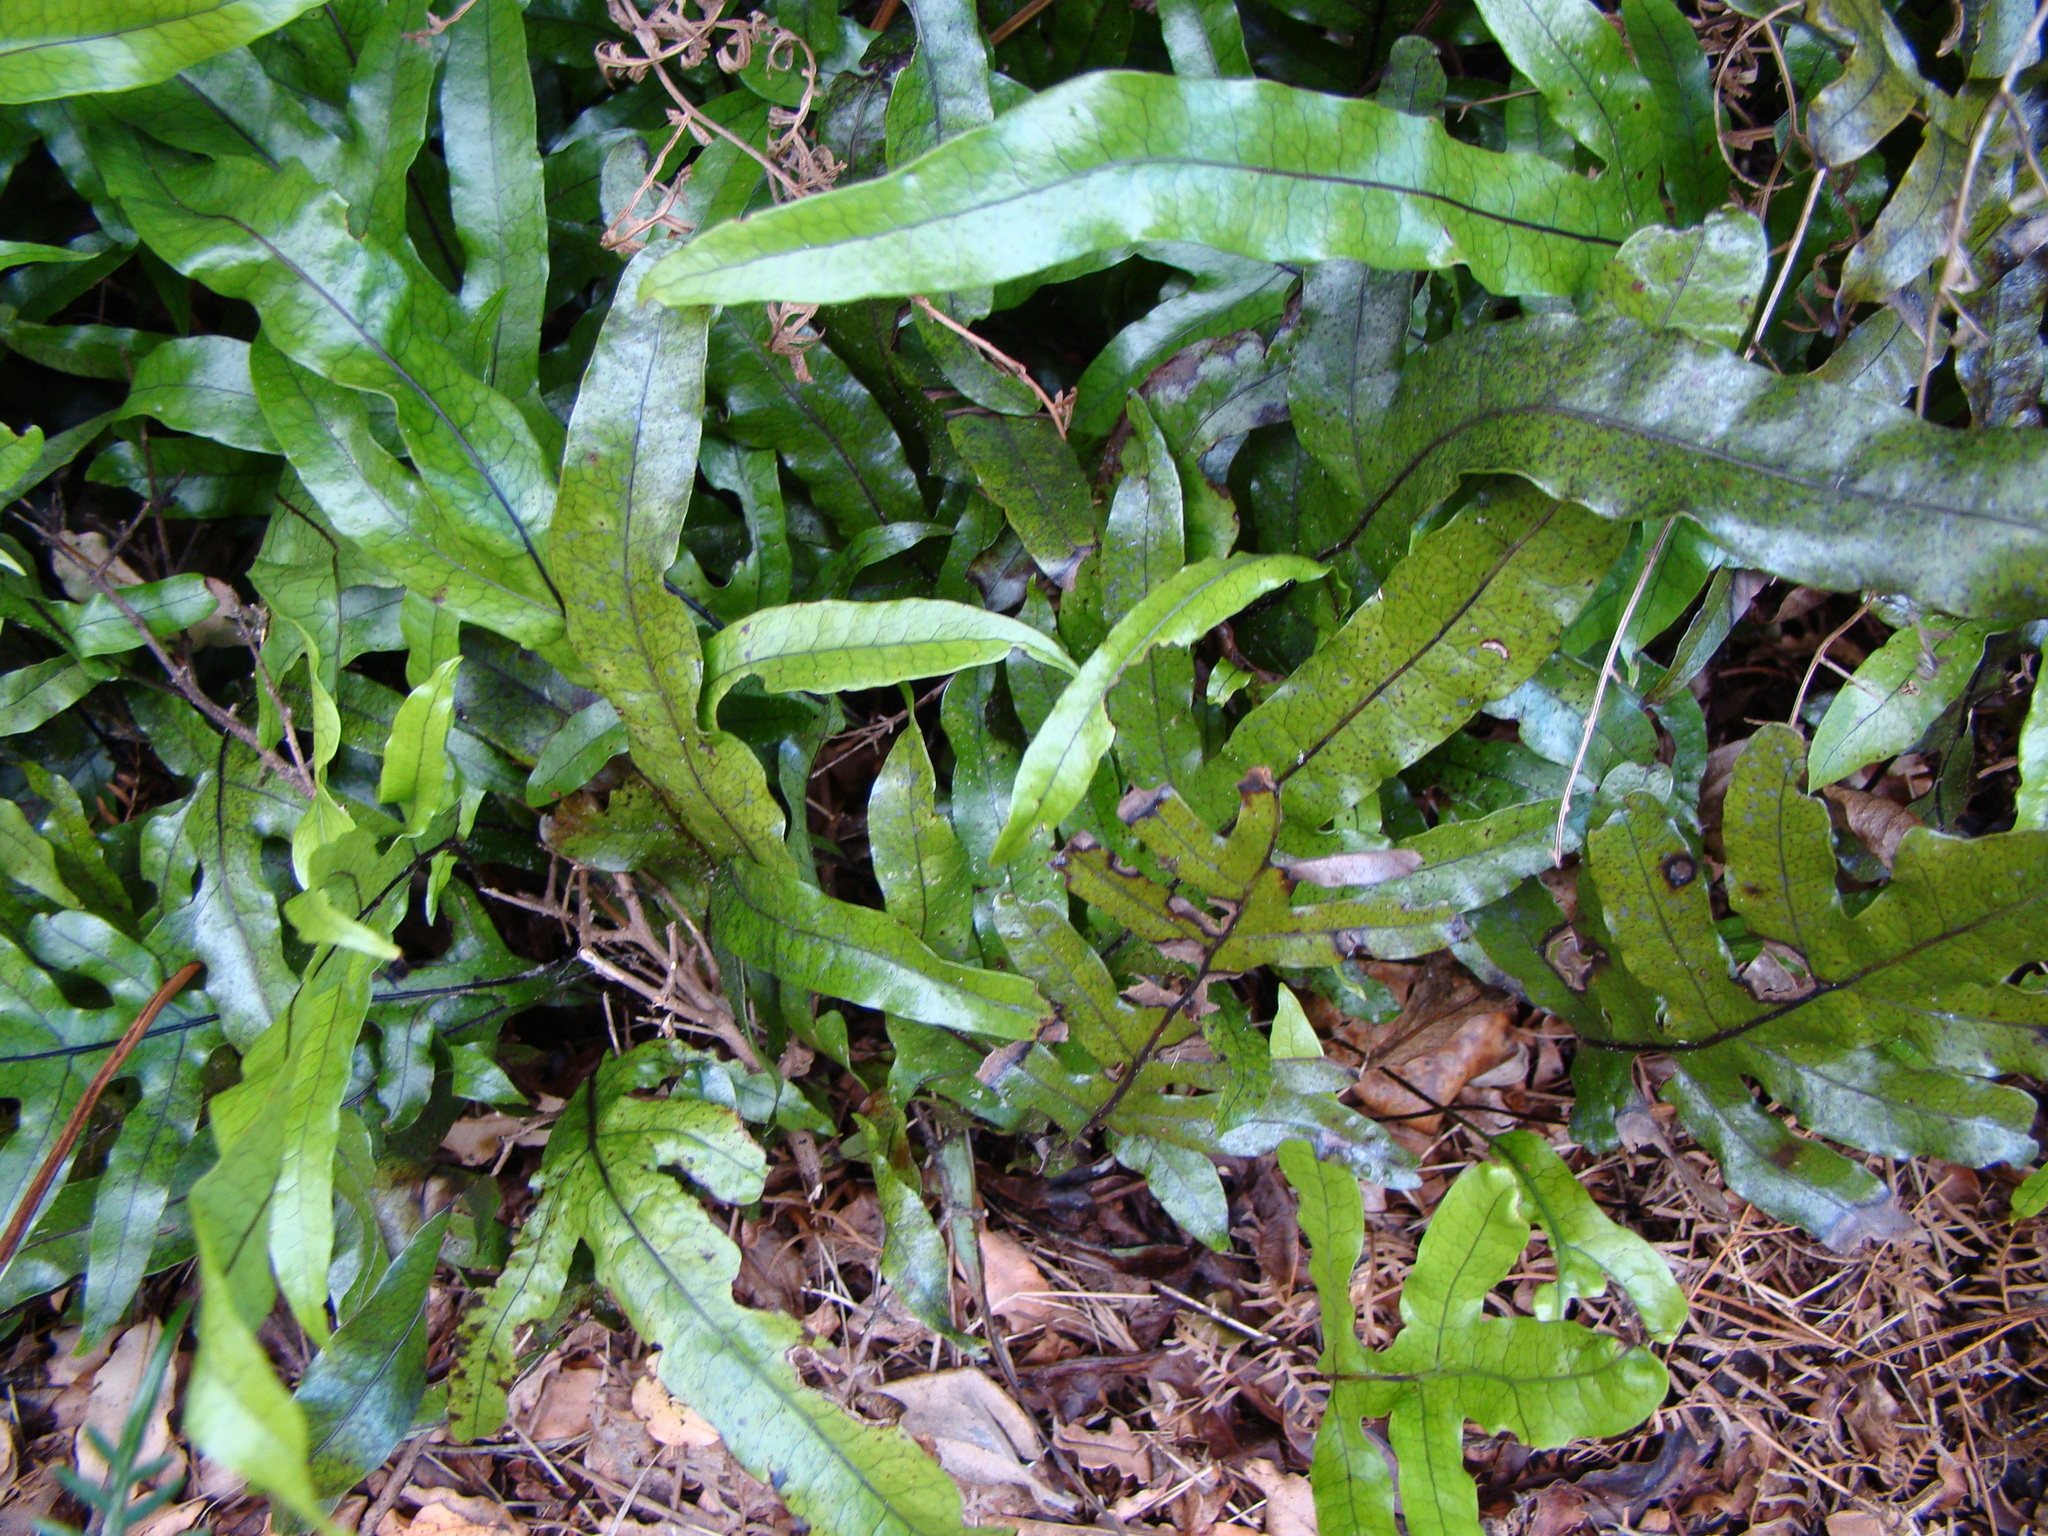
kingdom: Plantae
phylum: Tracheophyta
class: Polypodiopsida
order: Polypodiales
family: Polypodiaceae
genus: Lecanopteris
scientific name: Lecanopteris pustulata
